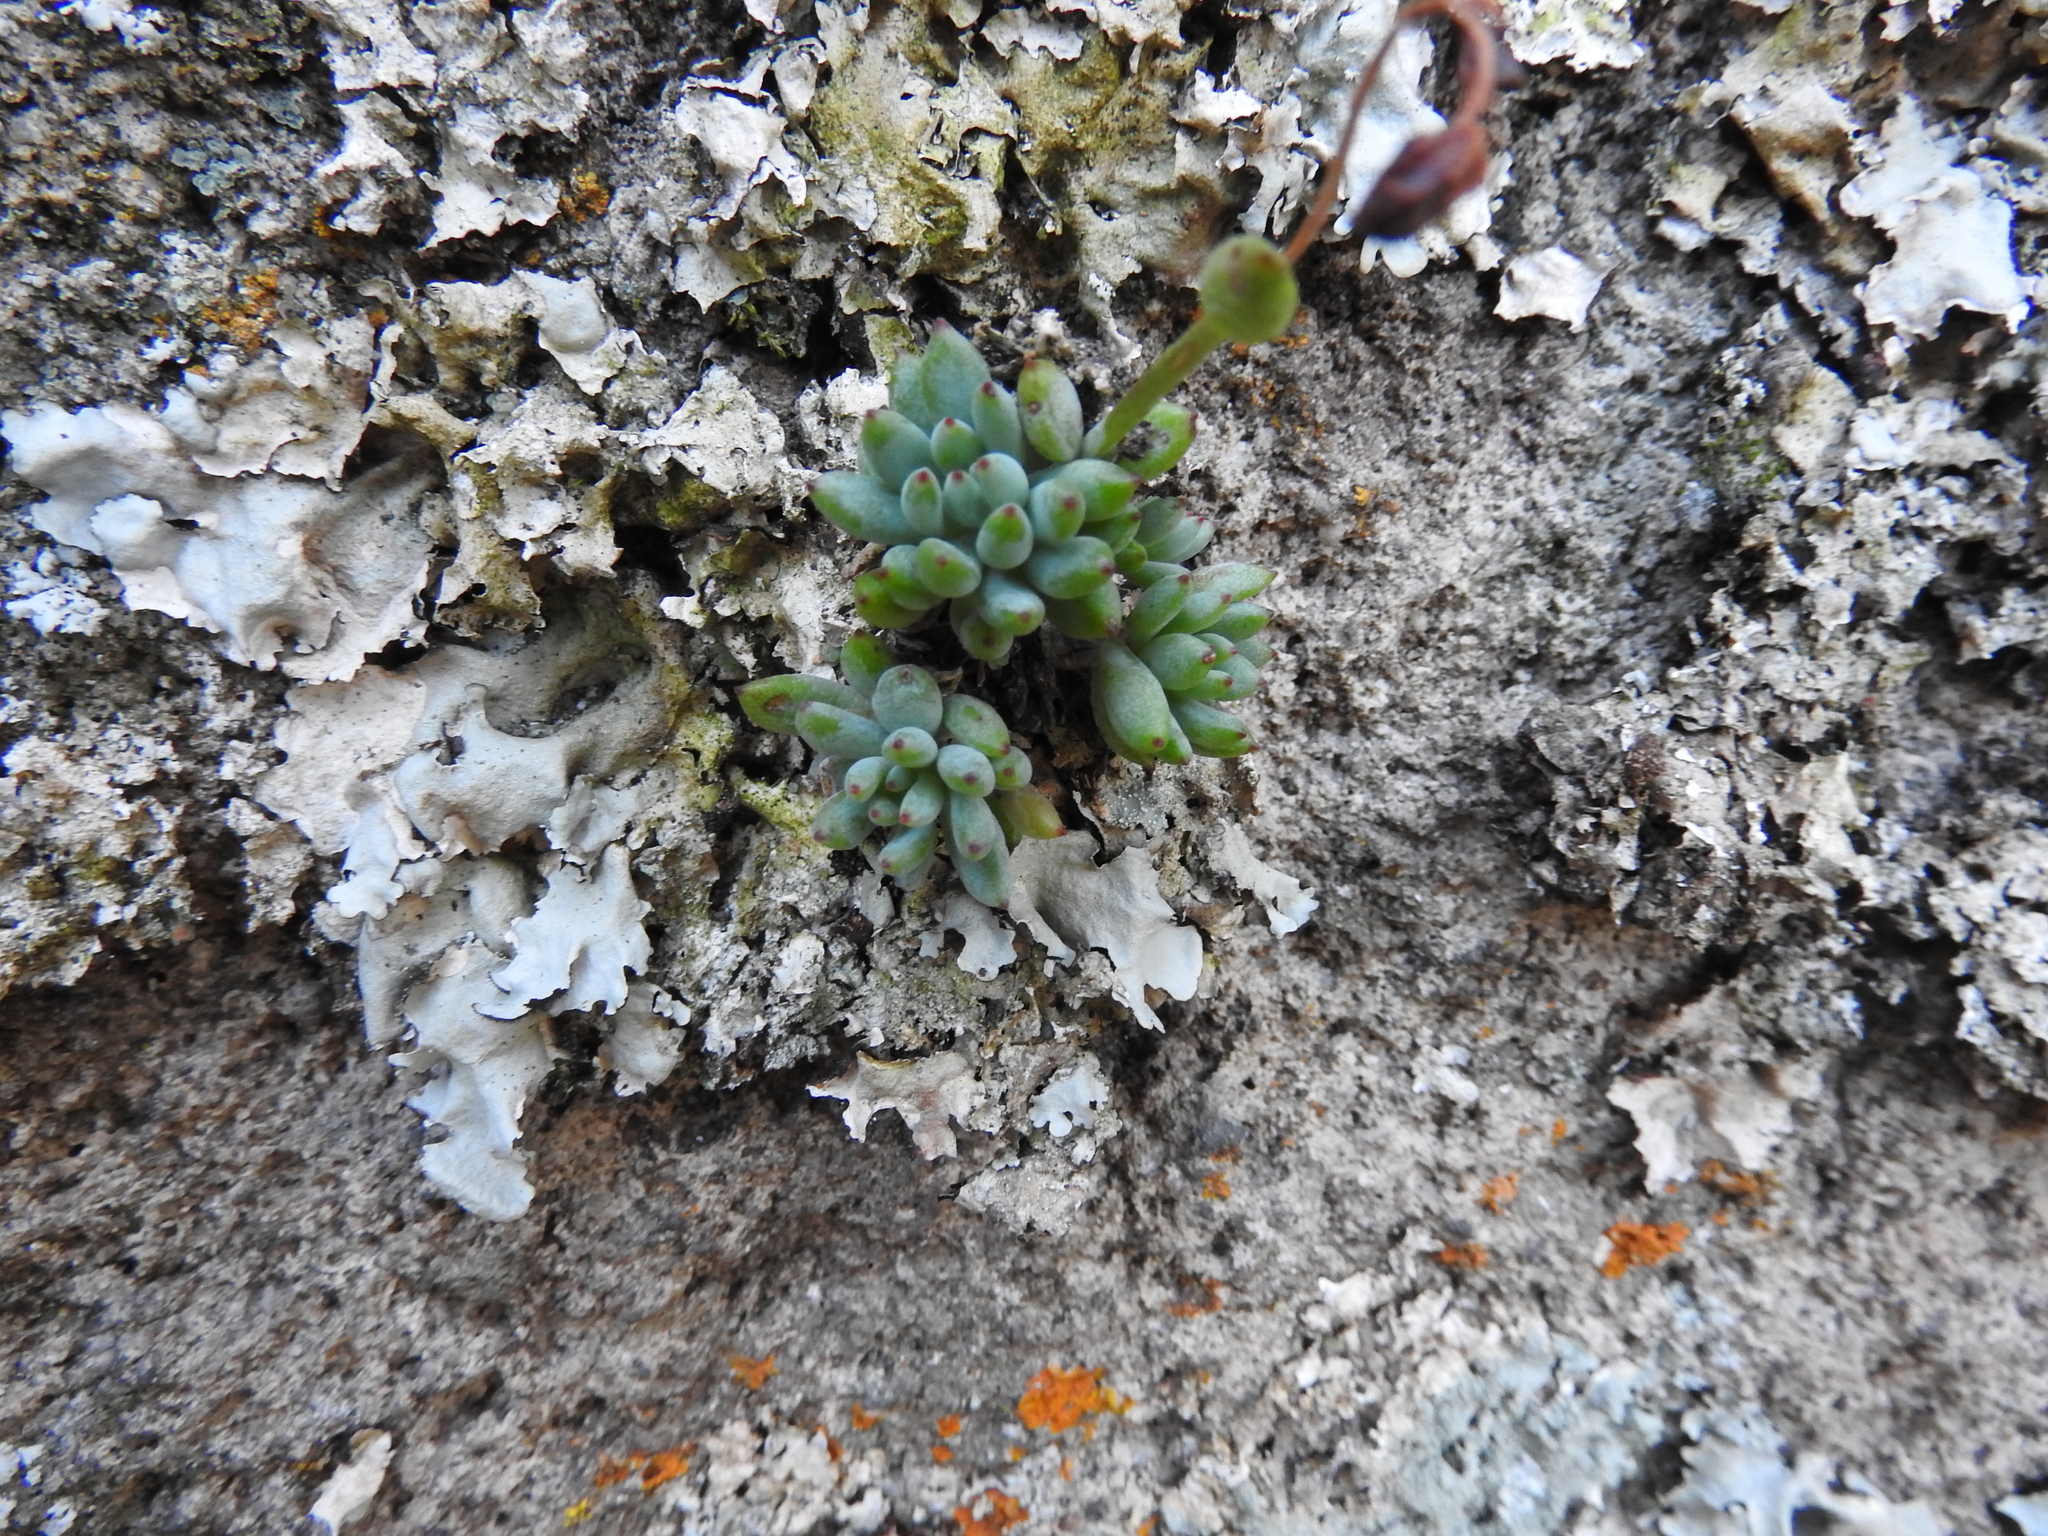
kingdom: Plantae
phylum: Tracheophyta
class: Magnoliopsida
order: Saxifragales
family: Crassulaceae
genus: Graptopetalum
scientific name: Graptopetalum pachyphyllum
